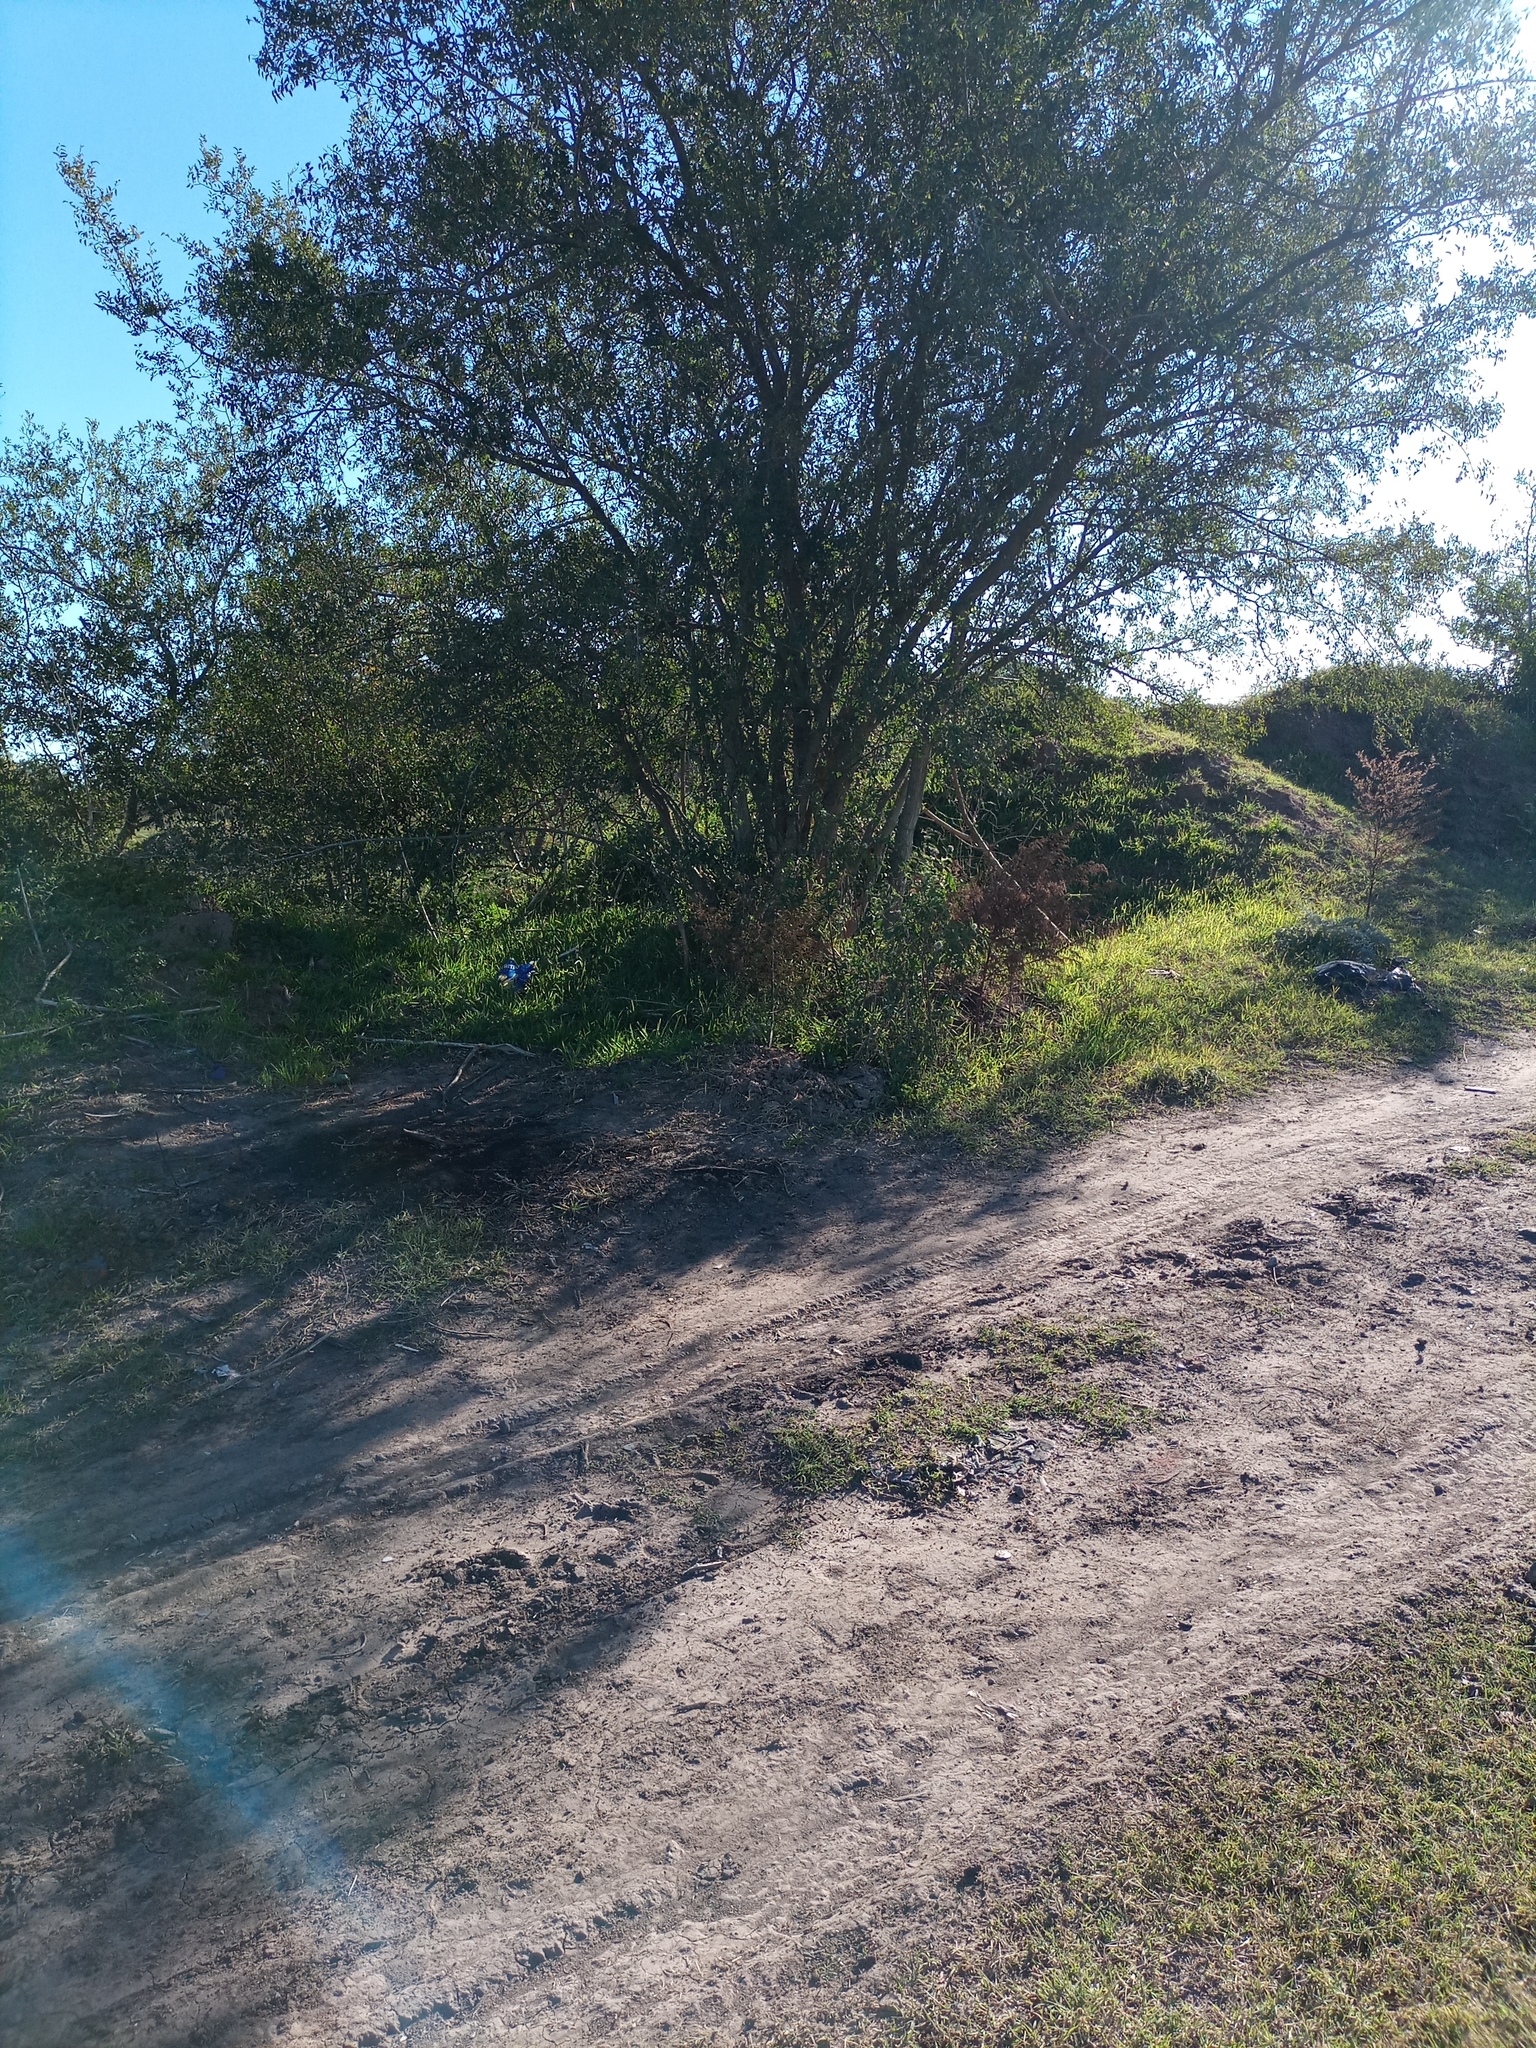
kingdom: Plantae
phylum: Tracheophyta
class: Magnoliopsida
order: Rosales
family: Cannabaceae
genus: Celtis
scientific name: Celtis tala
